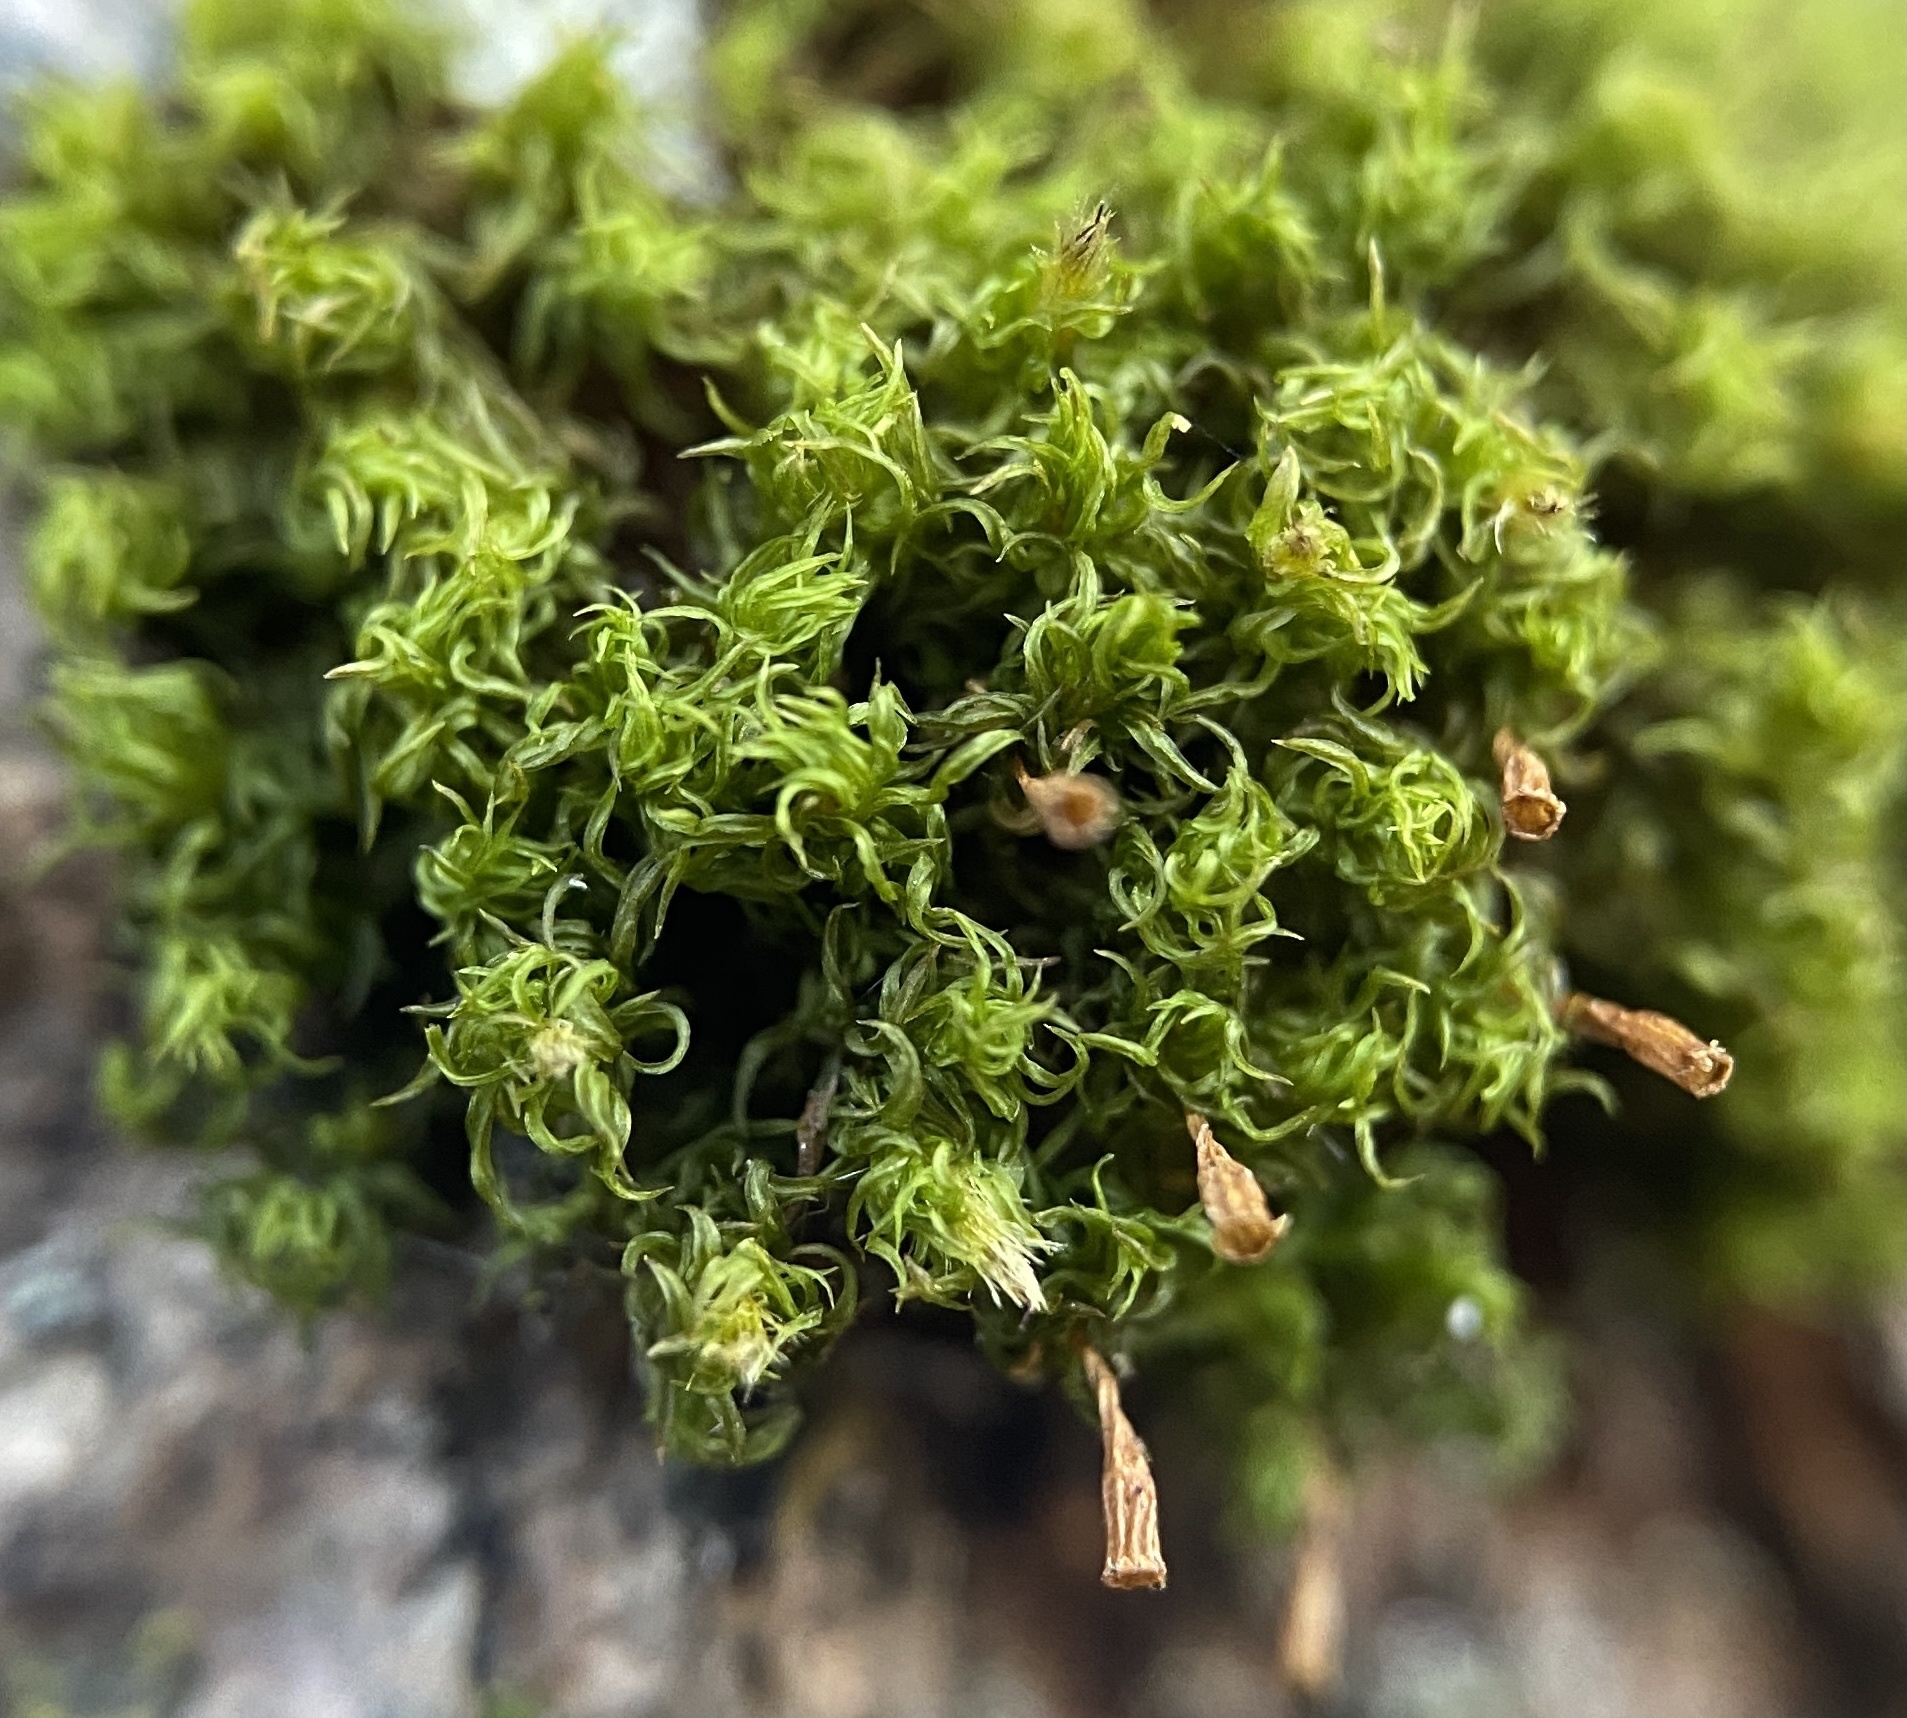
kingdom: Plantae
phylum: Bryophyta
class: Bryopsida
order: Orthotrichales
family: Orthotrichaceae
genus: Ulota
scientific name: Ulota crispula
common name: Crisped pincushion
